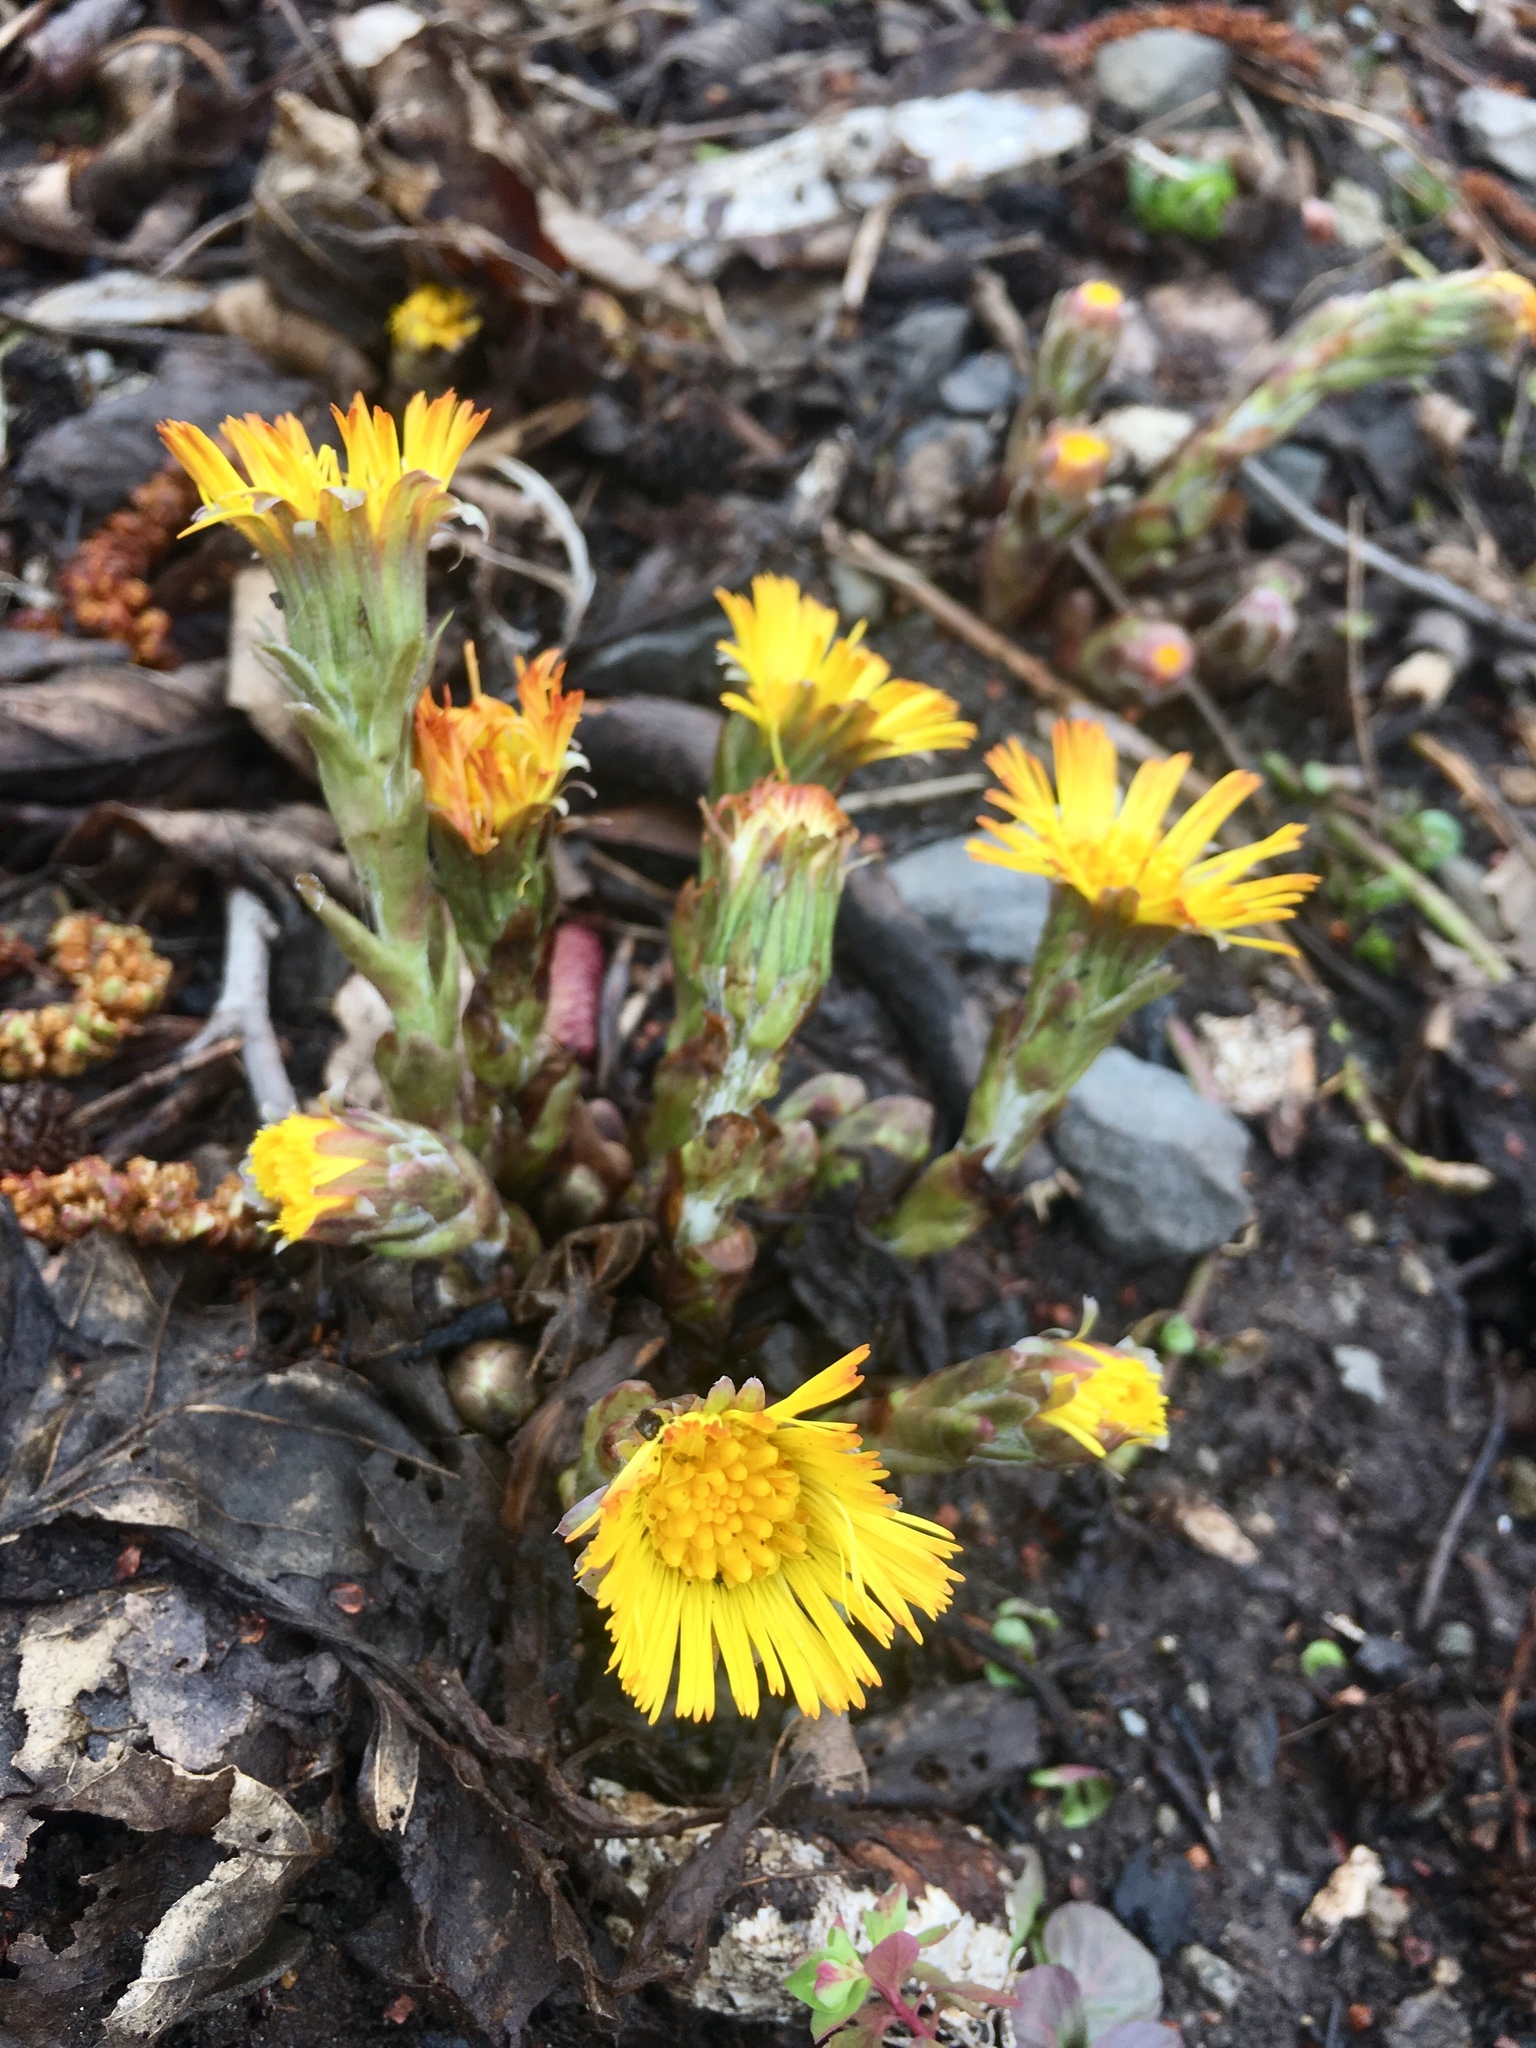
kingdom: Plantae
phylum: Tracheophyta
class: Magnoliopsida
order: Asterales
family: Asteraceae
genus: Tussilago
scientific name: Tussilago farfara
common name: Coltsfoot
